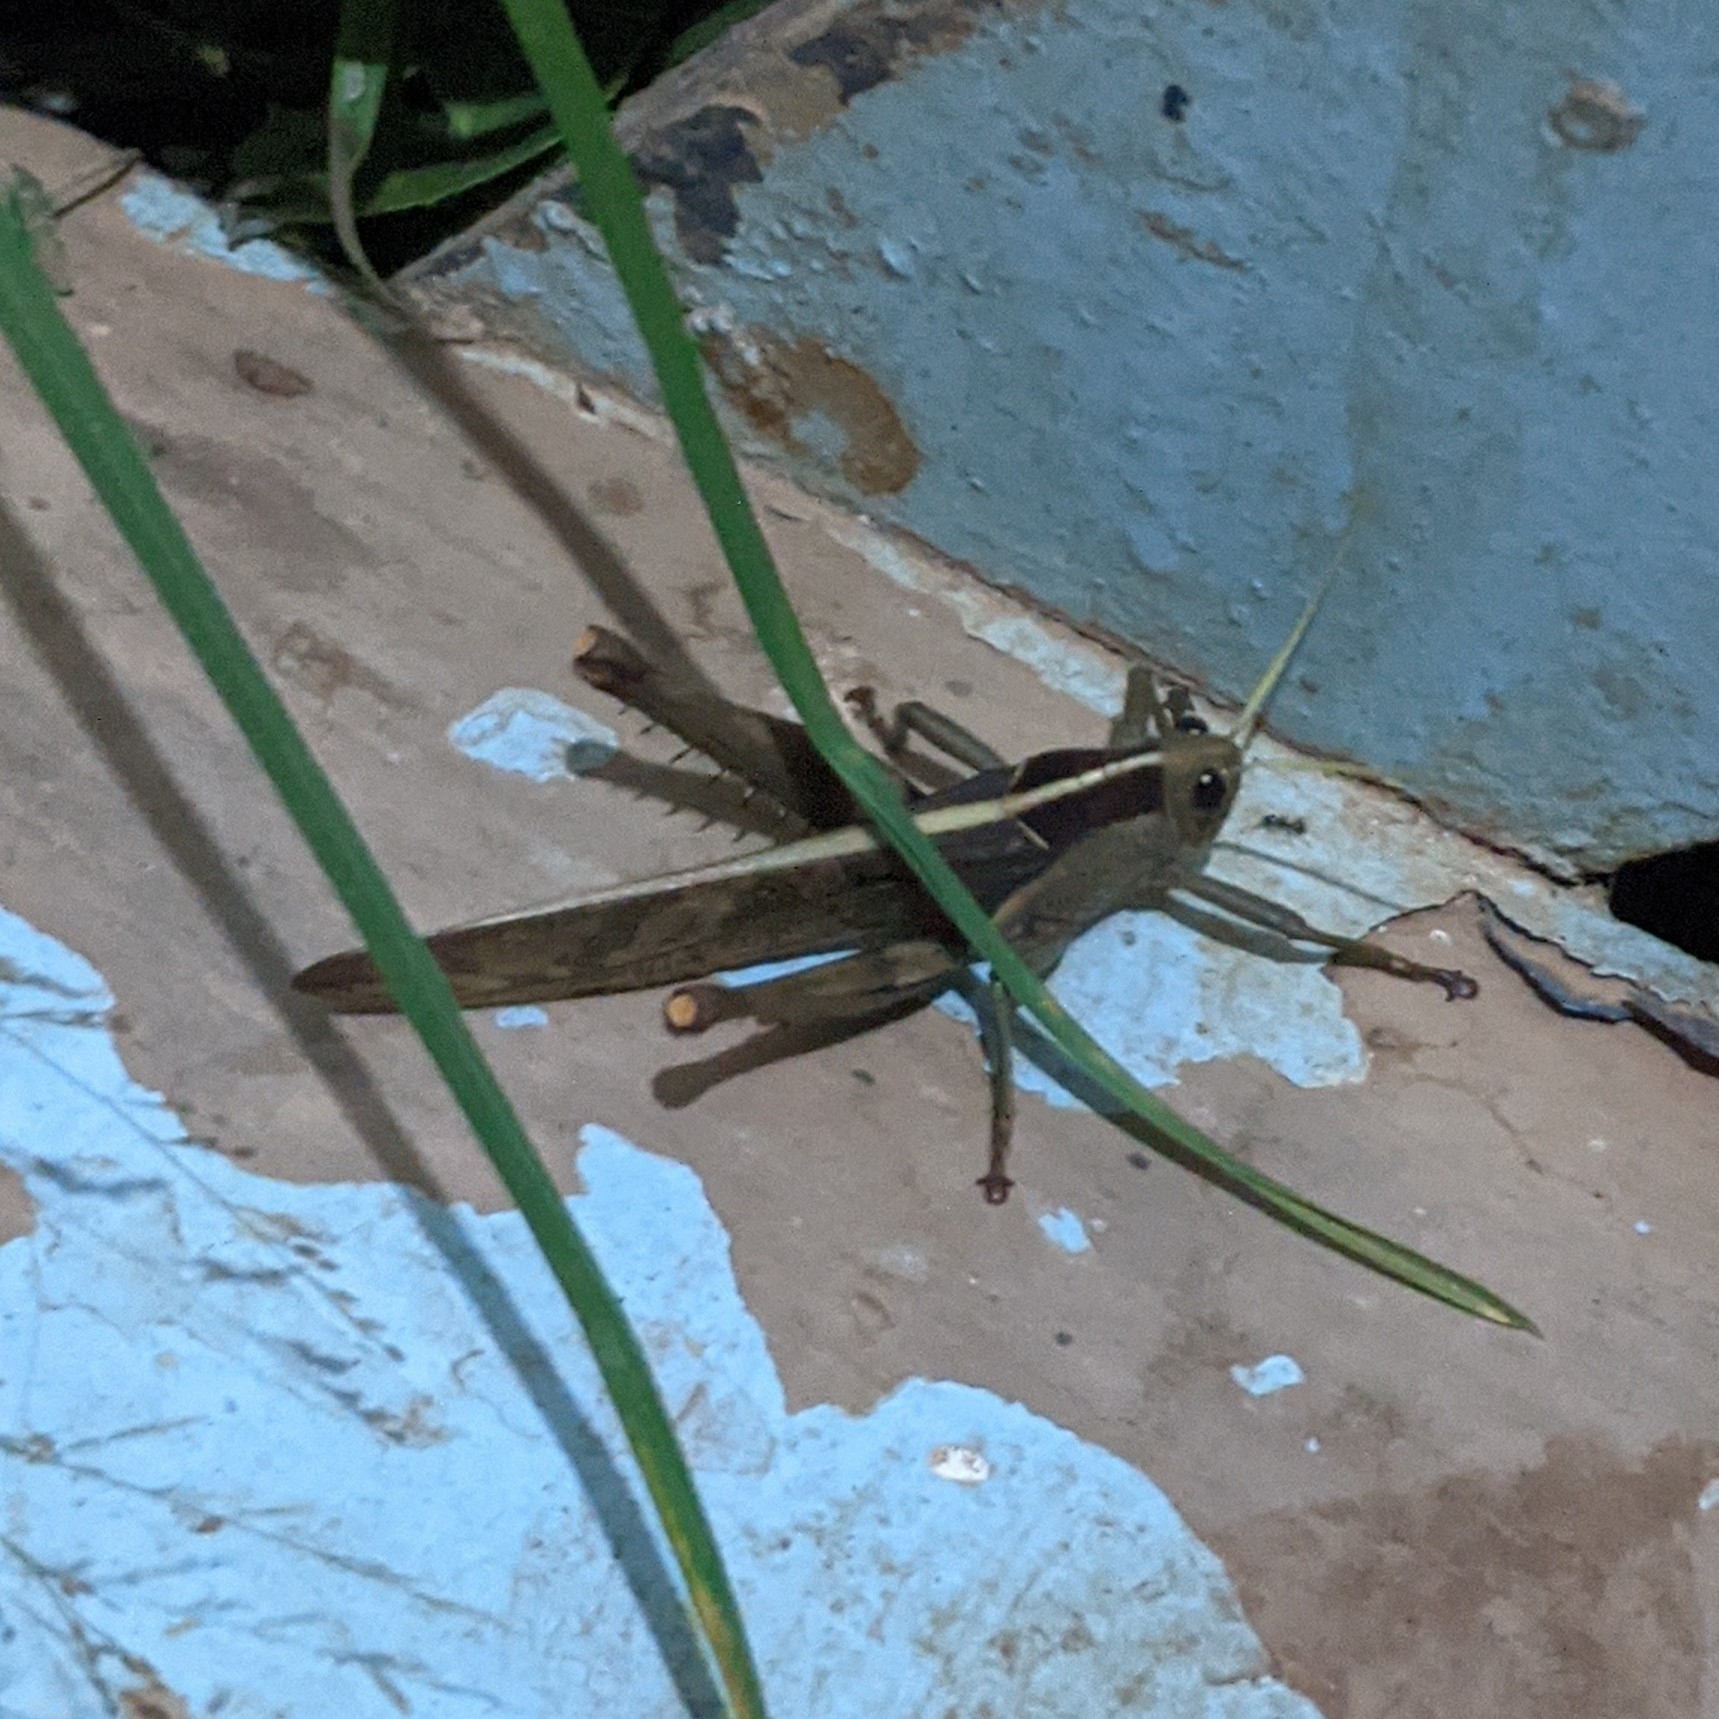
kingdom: Animalia
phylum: Arthropoda
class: Insecta
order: Orthoptera
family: Acrididae
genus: Acanthacris
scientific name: Acanthacris ruficornis
